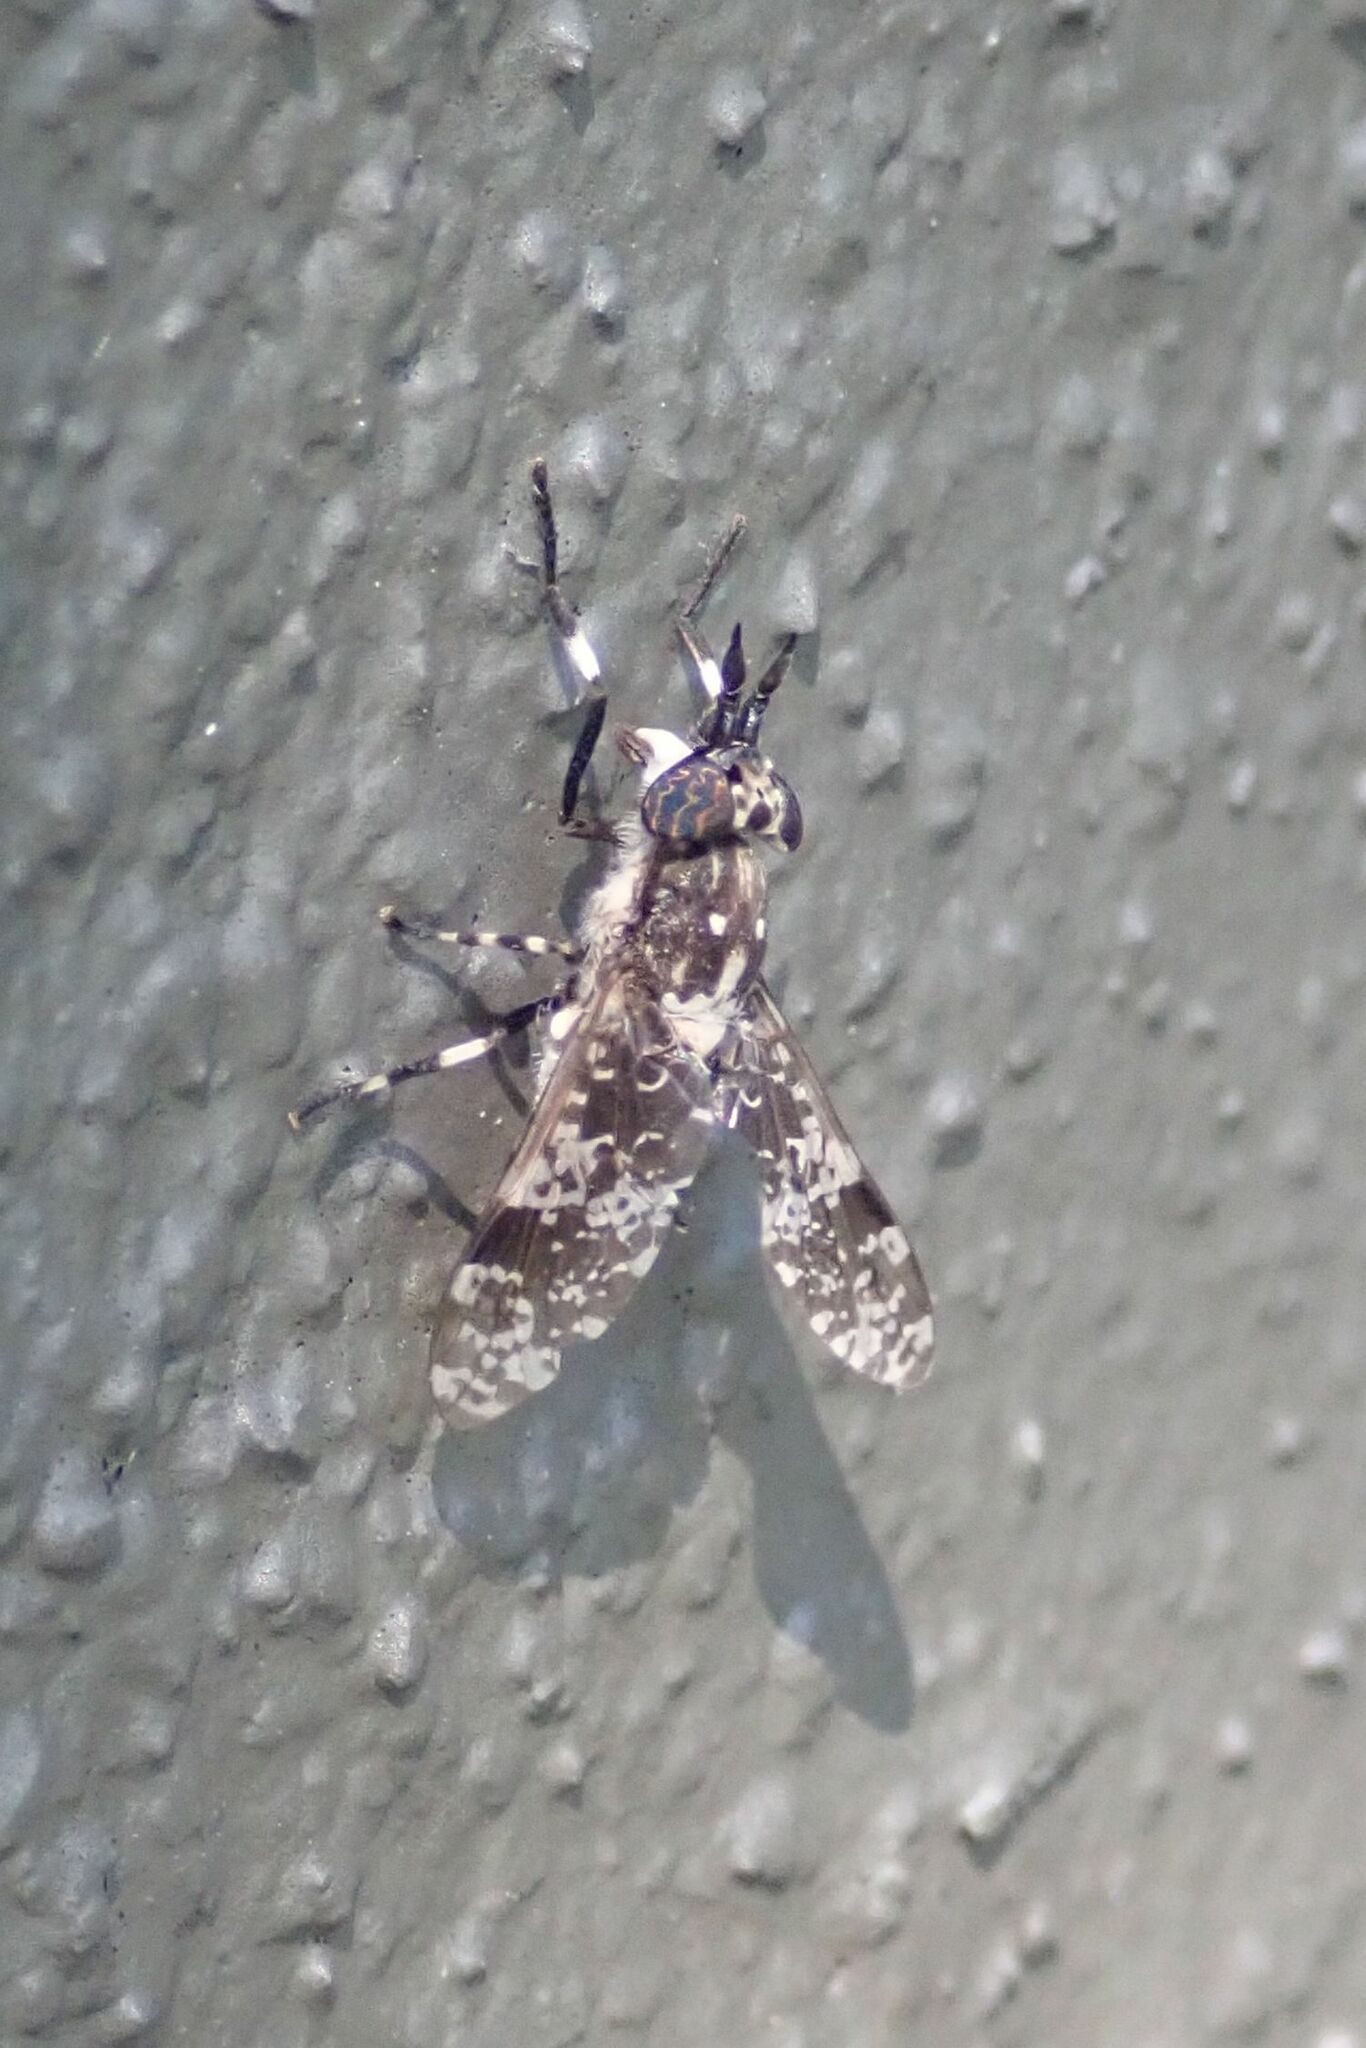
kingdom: Animalia
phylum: Arthropoda
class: Insecta
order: Diptera
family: Tabanidae
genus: Haematopota
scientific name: Haematopota decora
